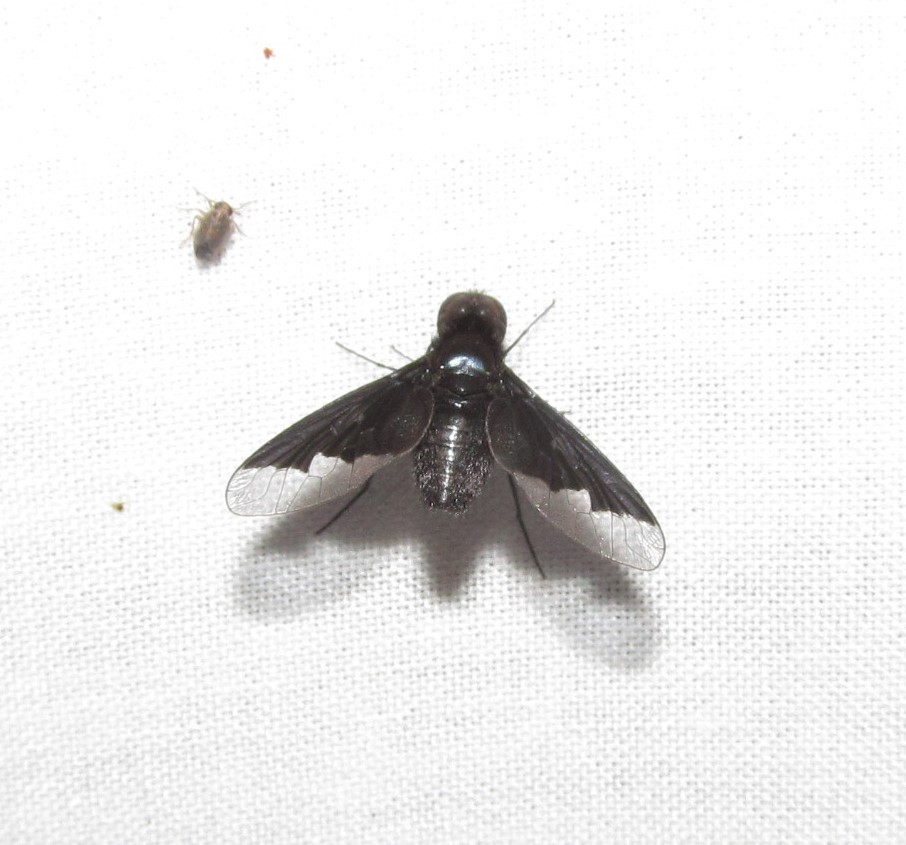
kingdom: Animalia
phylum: Arthropoda
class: Insecta
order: Diptera
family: Bombyliidae
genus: Anthrax
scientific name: Anthrax analis
